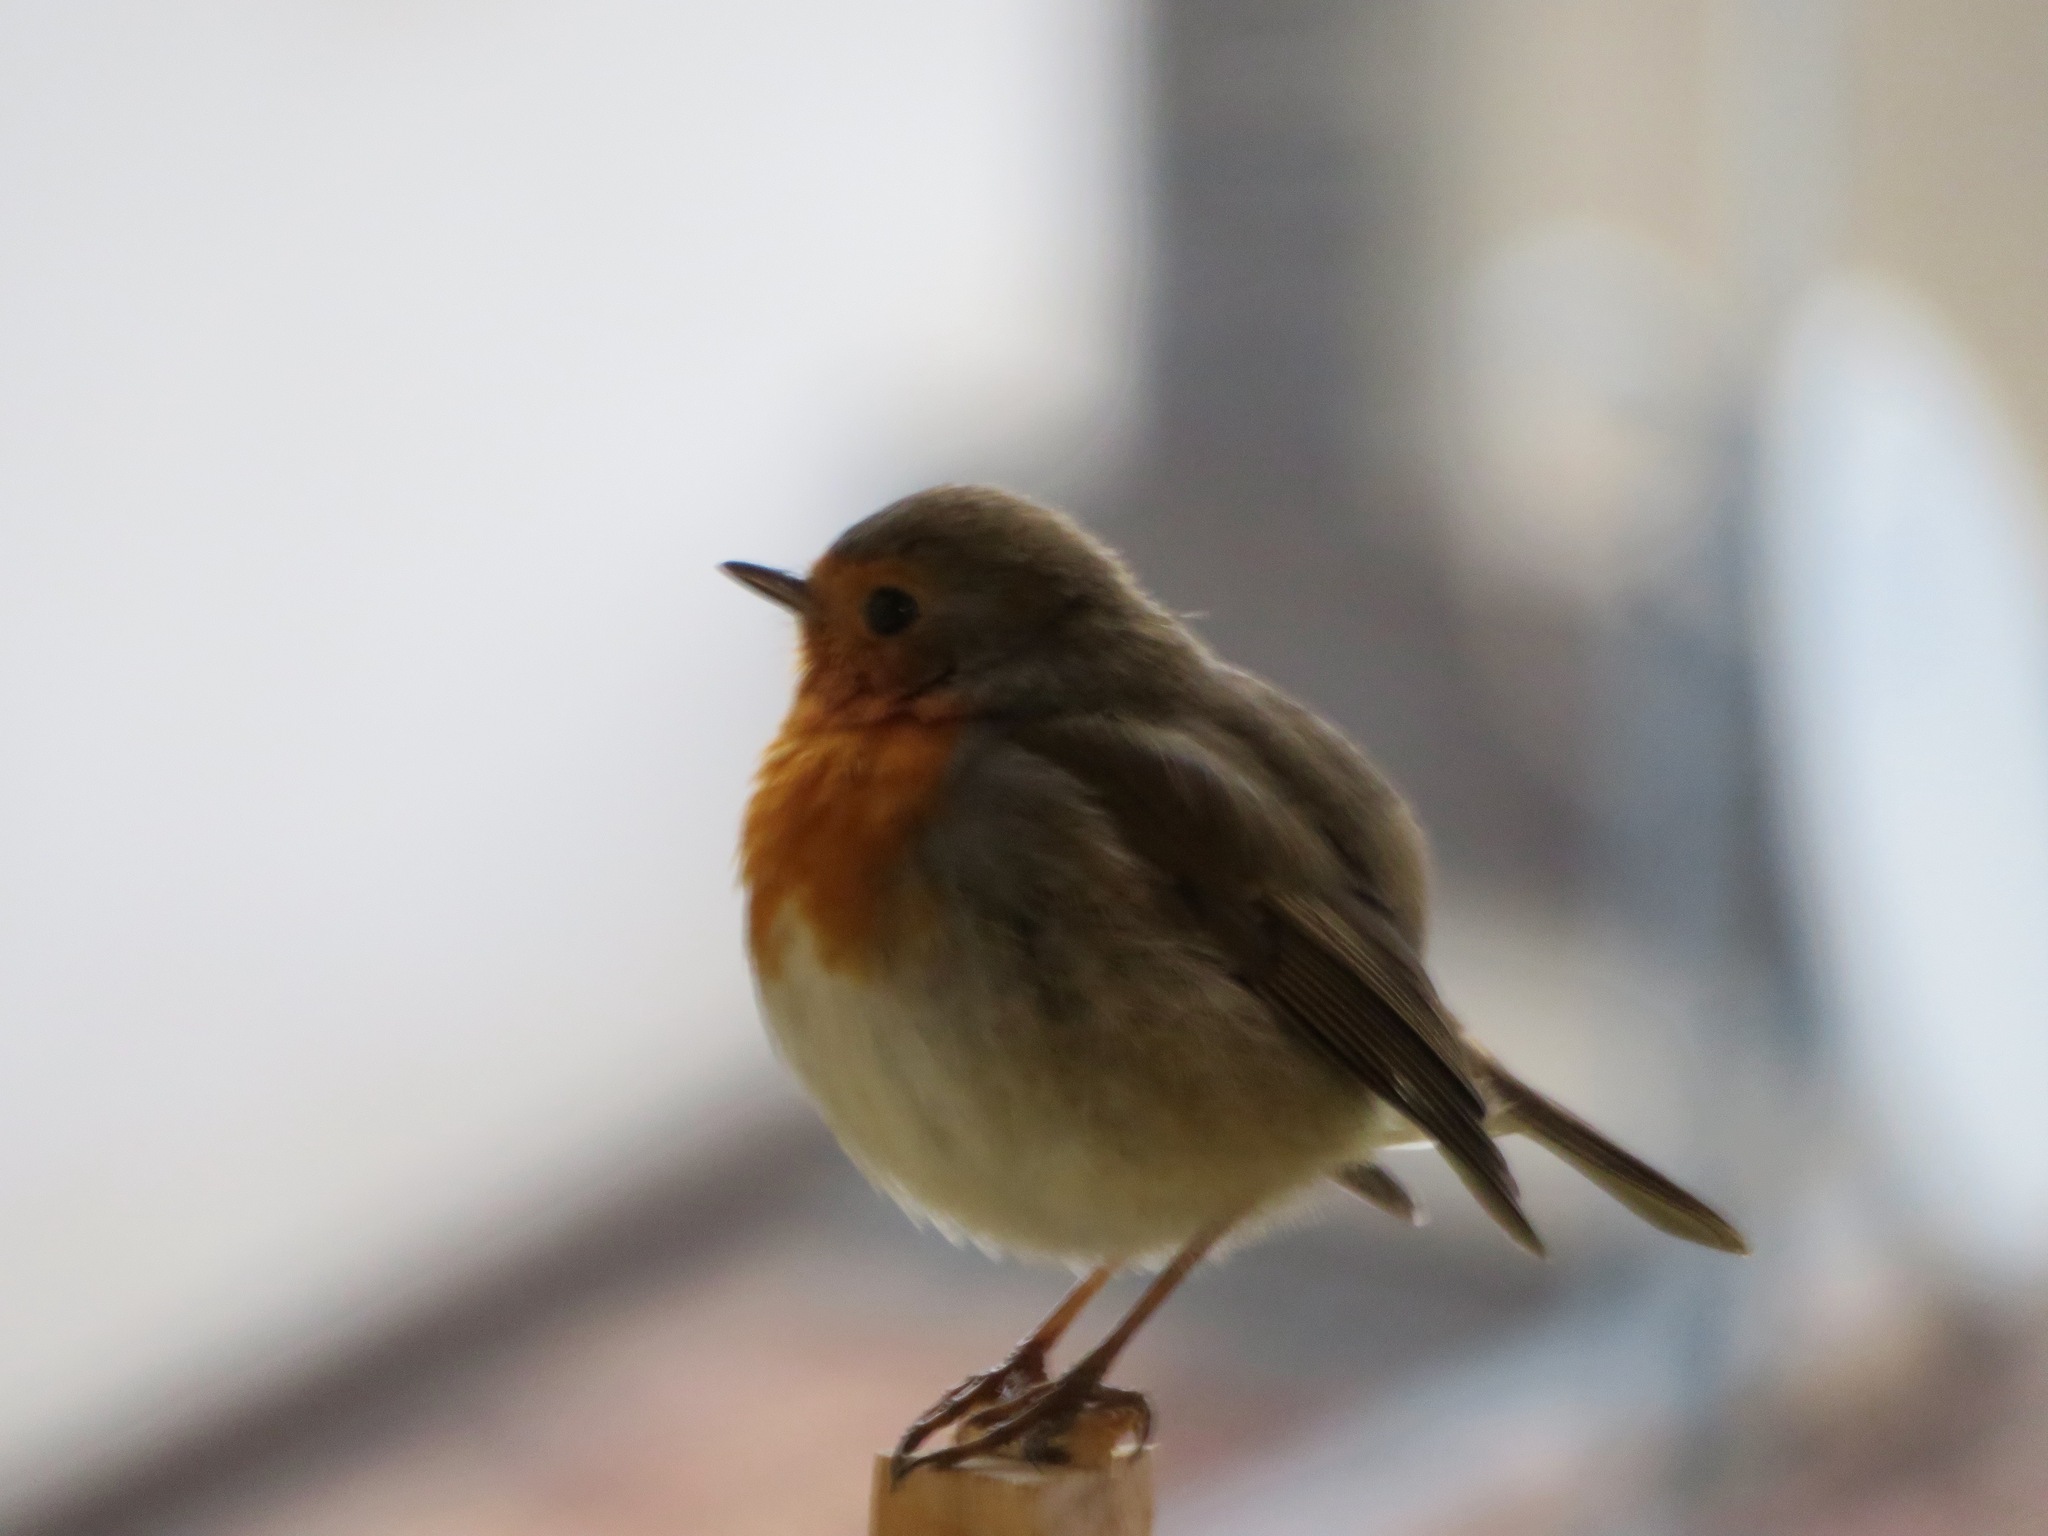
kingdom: Animalia
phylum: Chordata
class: Aves
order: Passeriformes
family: Muscicapidae
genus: Erithacus
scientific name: Erithacus rubecula
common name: European robin
